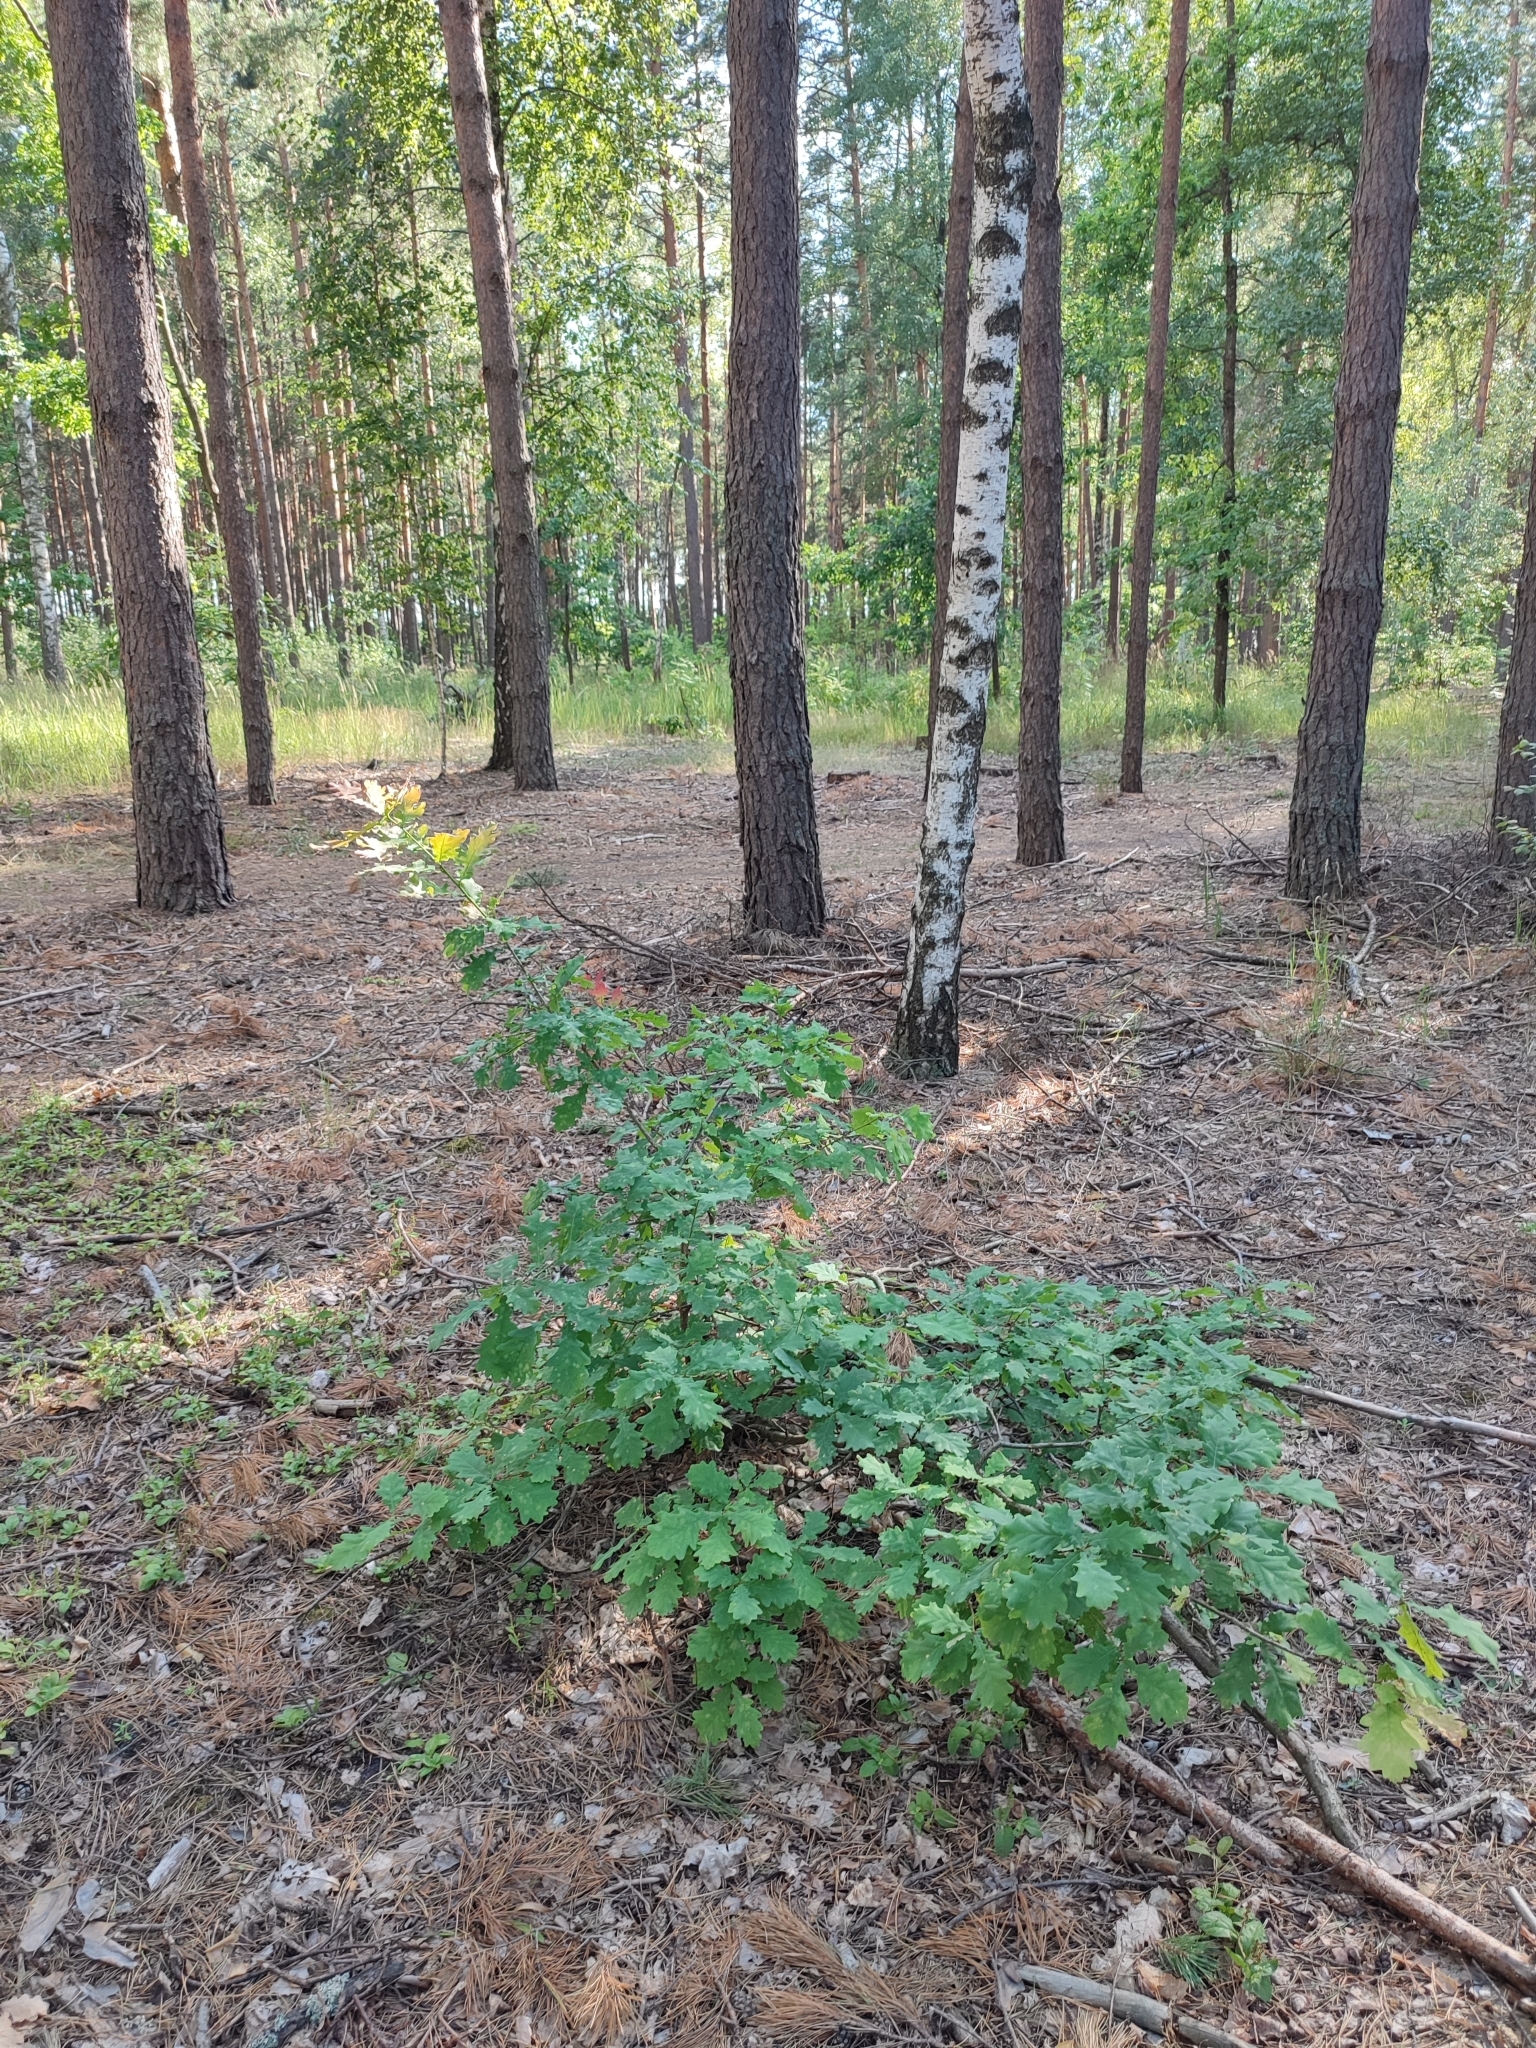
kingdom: Plantae
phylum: Tracheophyta
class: Magnoliopsida
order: Fagales
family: Fagaceae
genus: Quercus
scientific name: Quercus robur
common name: Pedunculate oak
